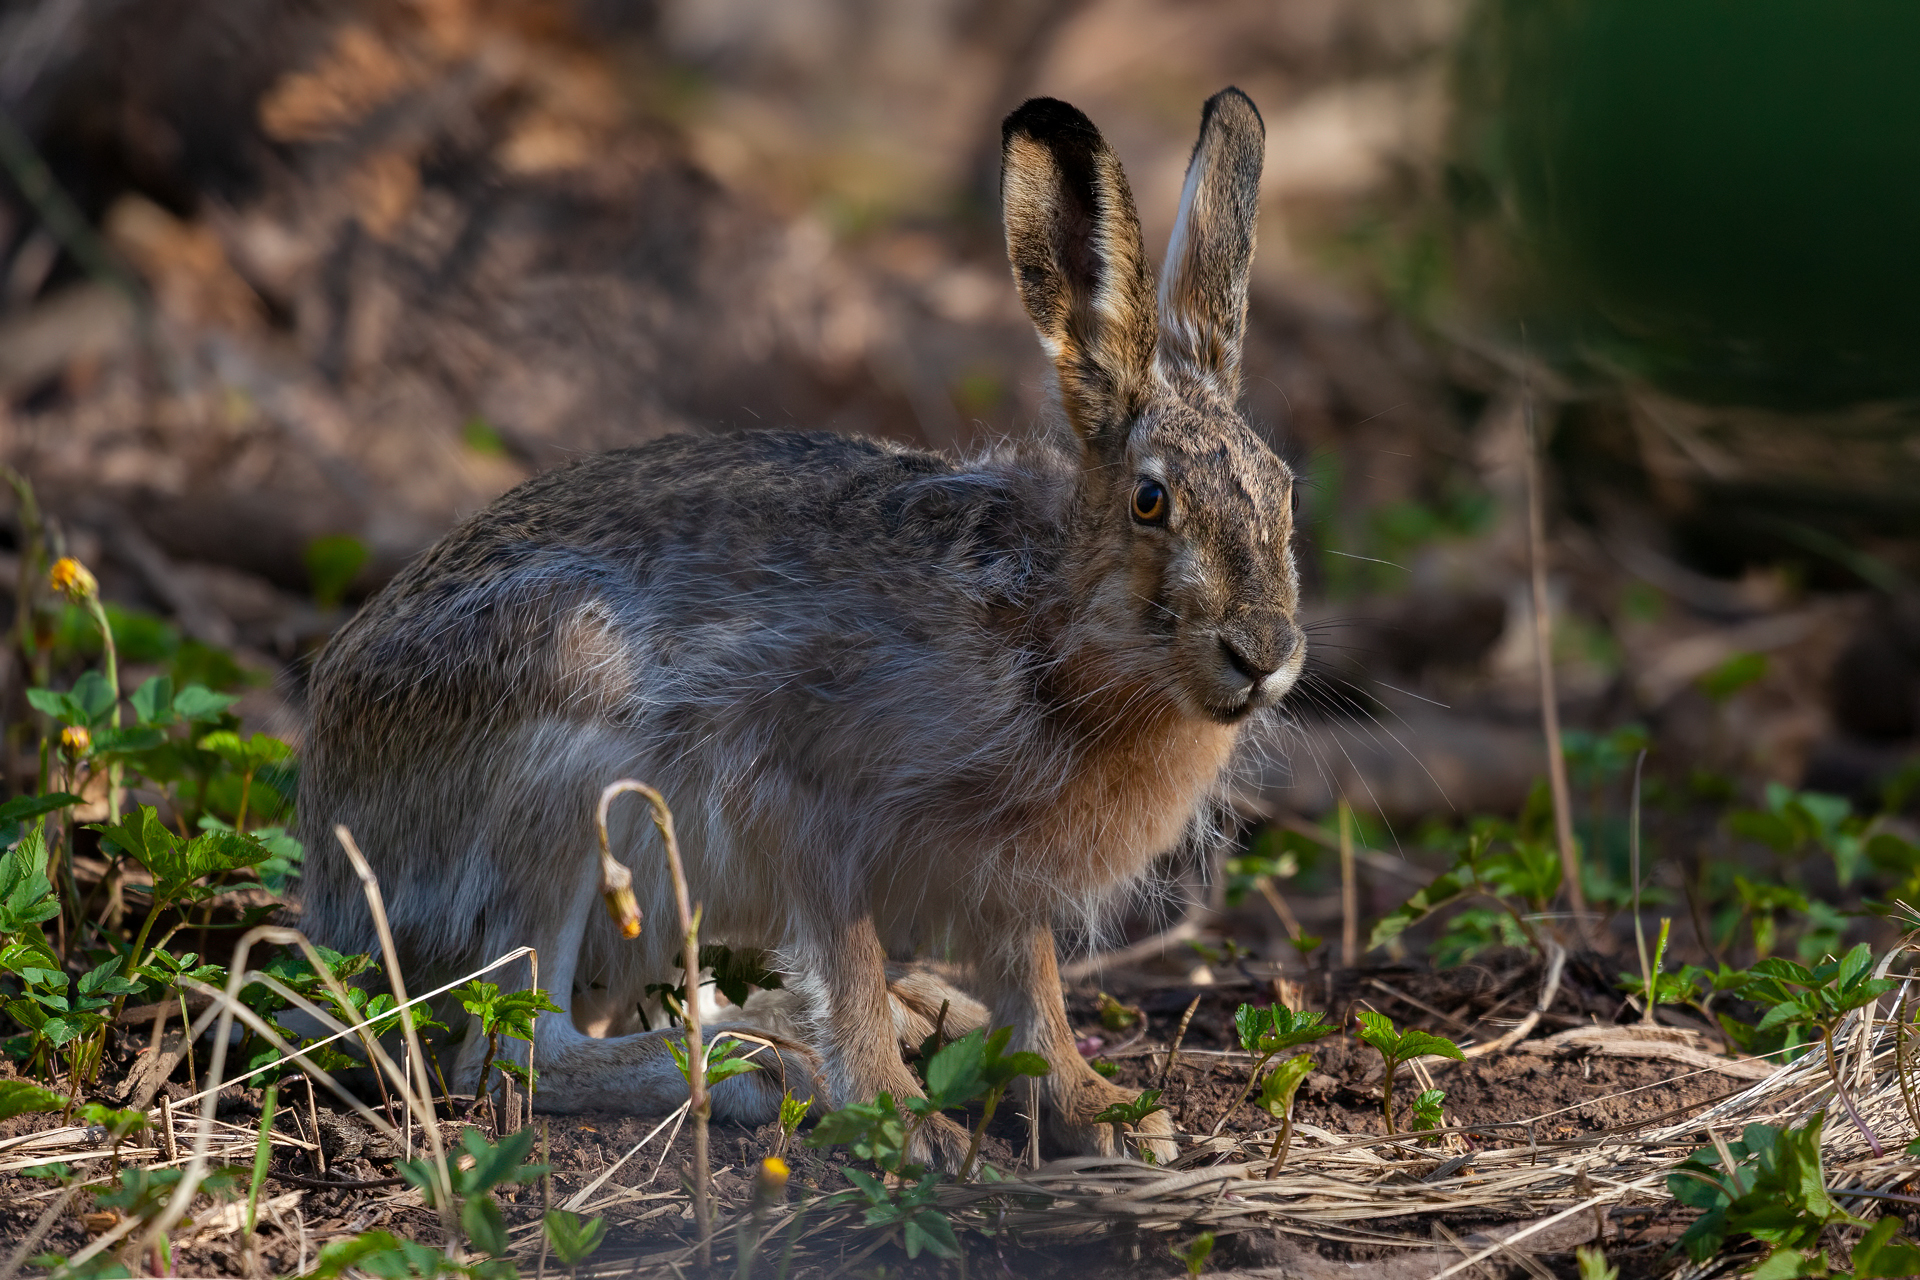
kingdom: Animalia
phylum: Chordata
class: Mammalia
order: Lagomorpha
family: Leporidae
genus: Lepus
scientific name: Lepus europaeus
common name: European hare
